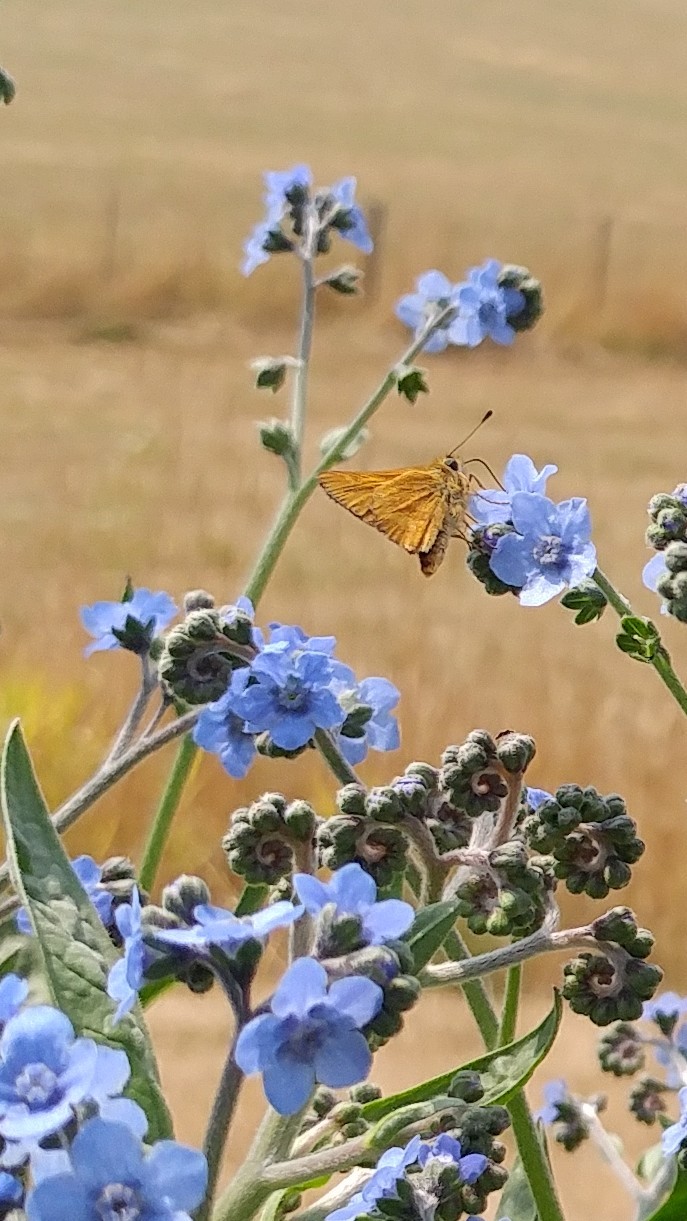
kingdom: Animalia
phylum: Arthropoda
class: Insecta
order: Lepidoptera
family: Hesperiidae
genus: Ochlodes
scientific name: Ochlodes sylvanoides
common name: Woodland skipper
